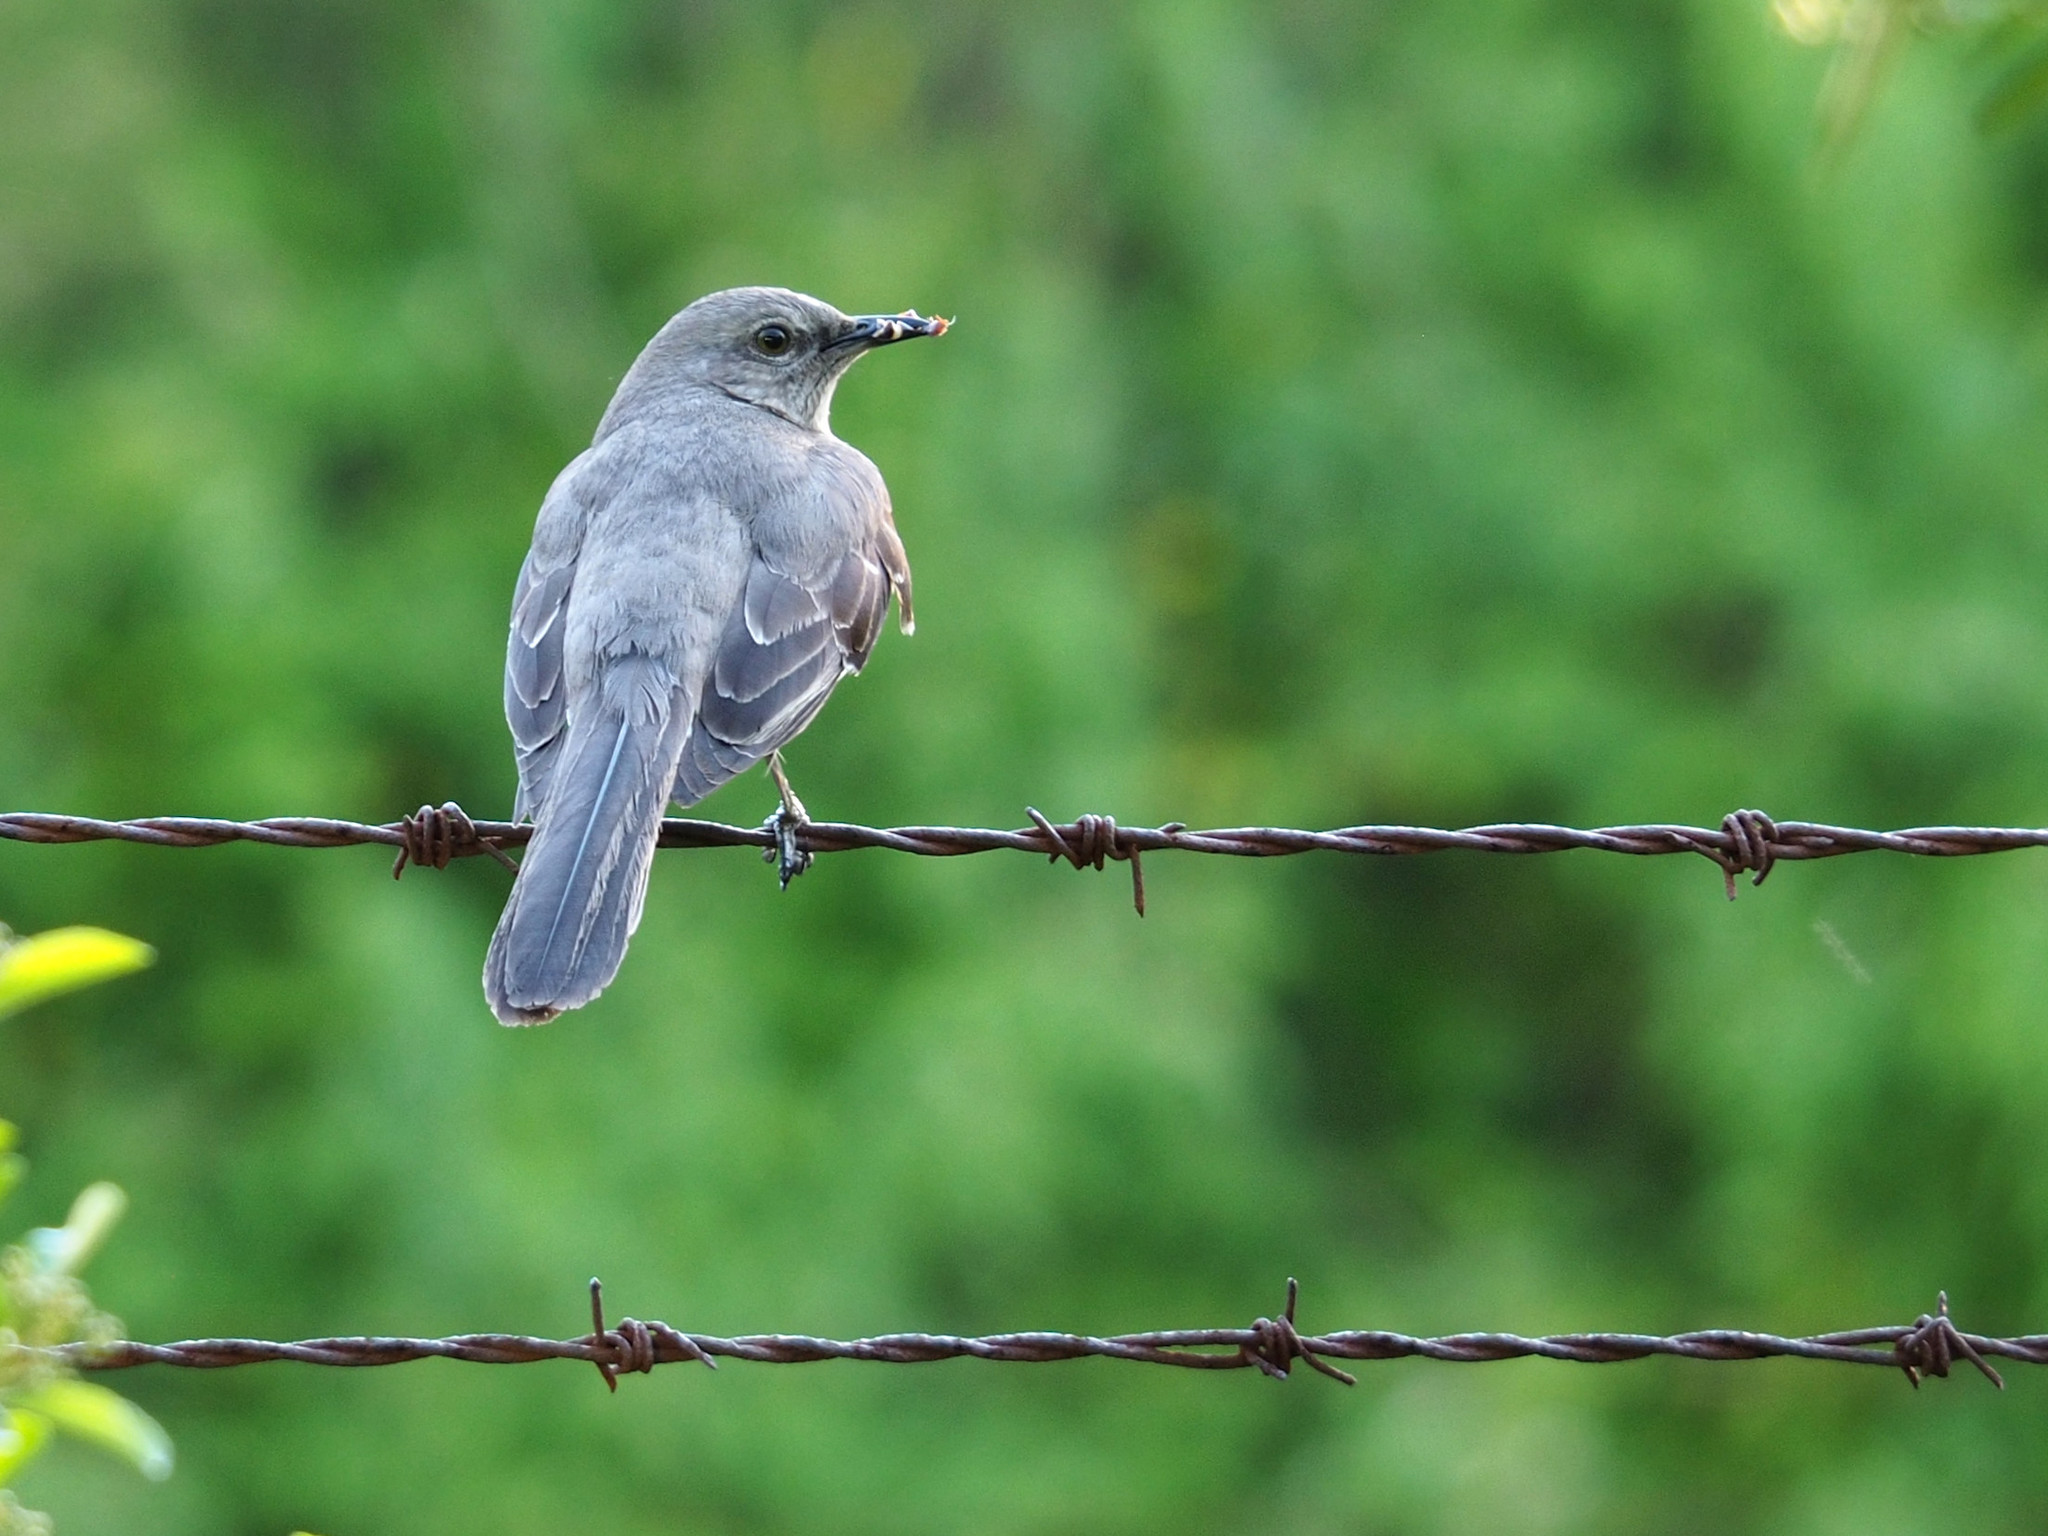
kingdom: Animalia
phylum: Chordata
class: Aves
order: Passeriformes
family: Mimidae
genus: Mimus
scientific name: Mimus polyglottos
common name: Northern mockingbird
